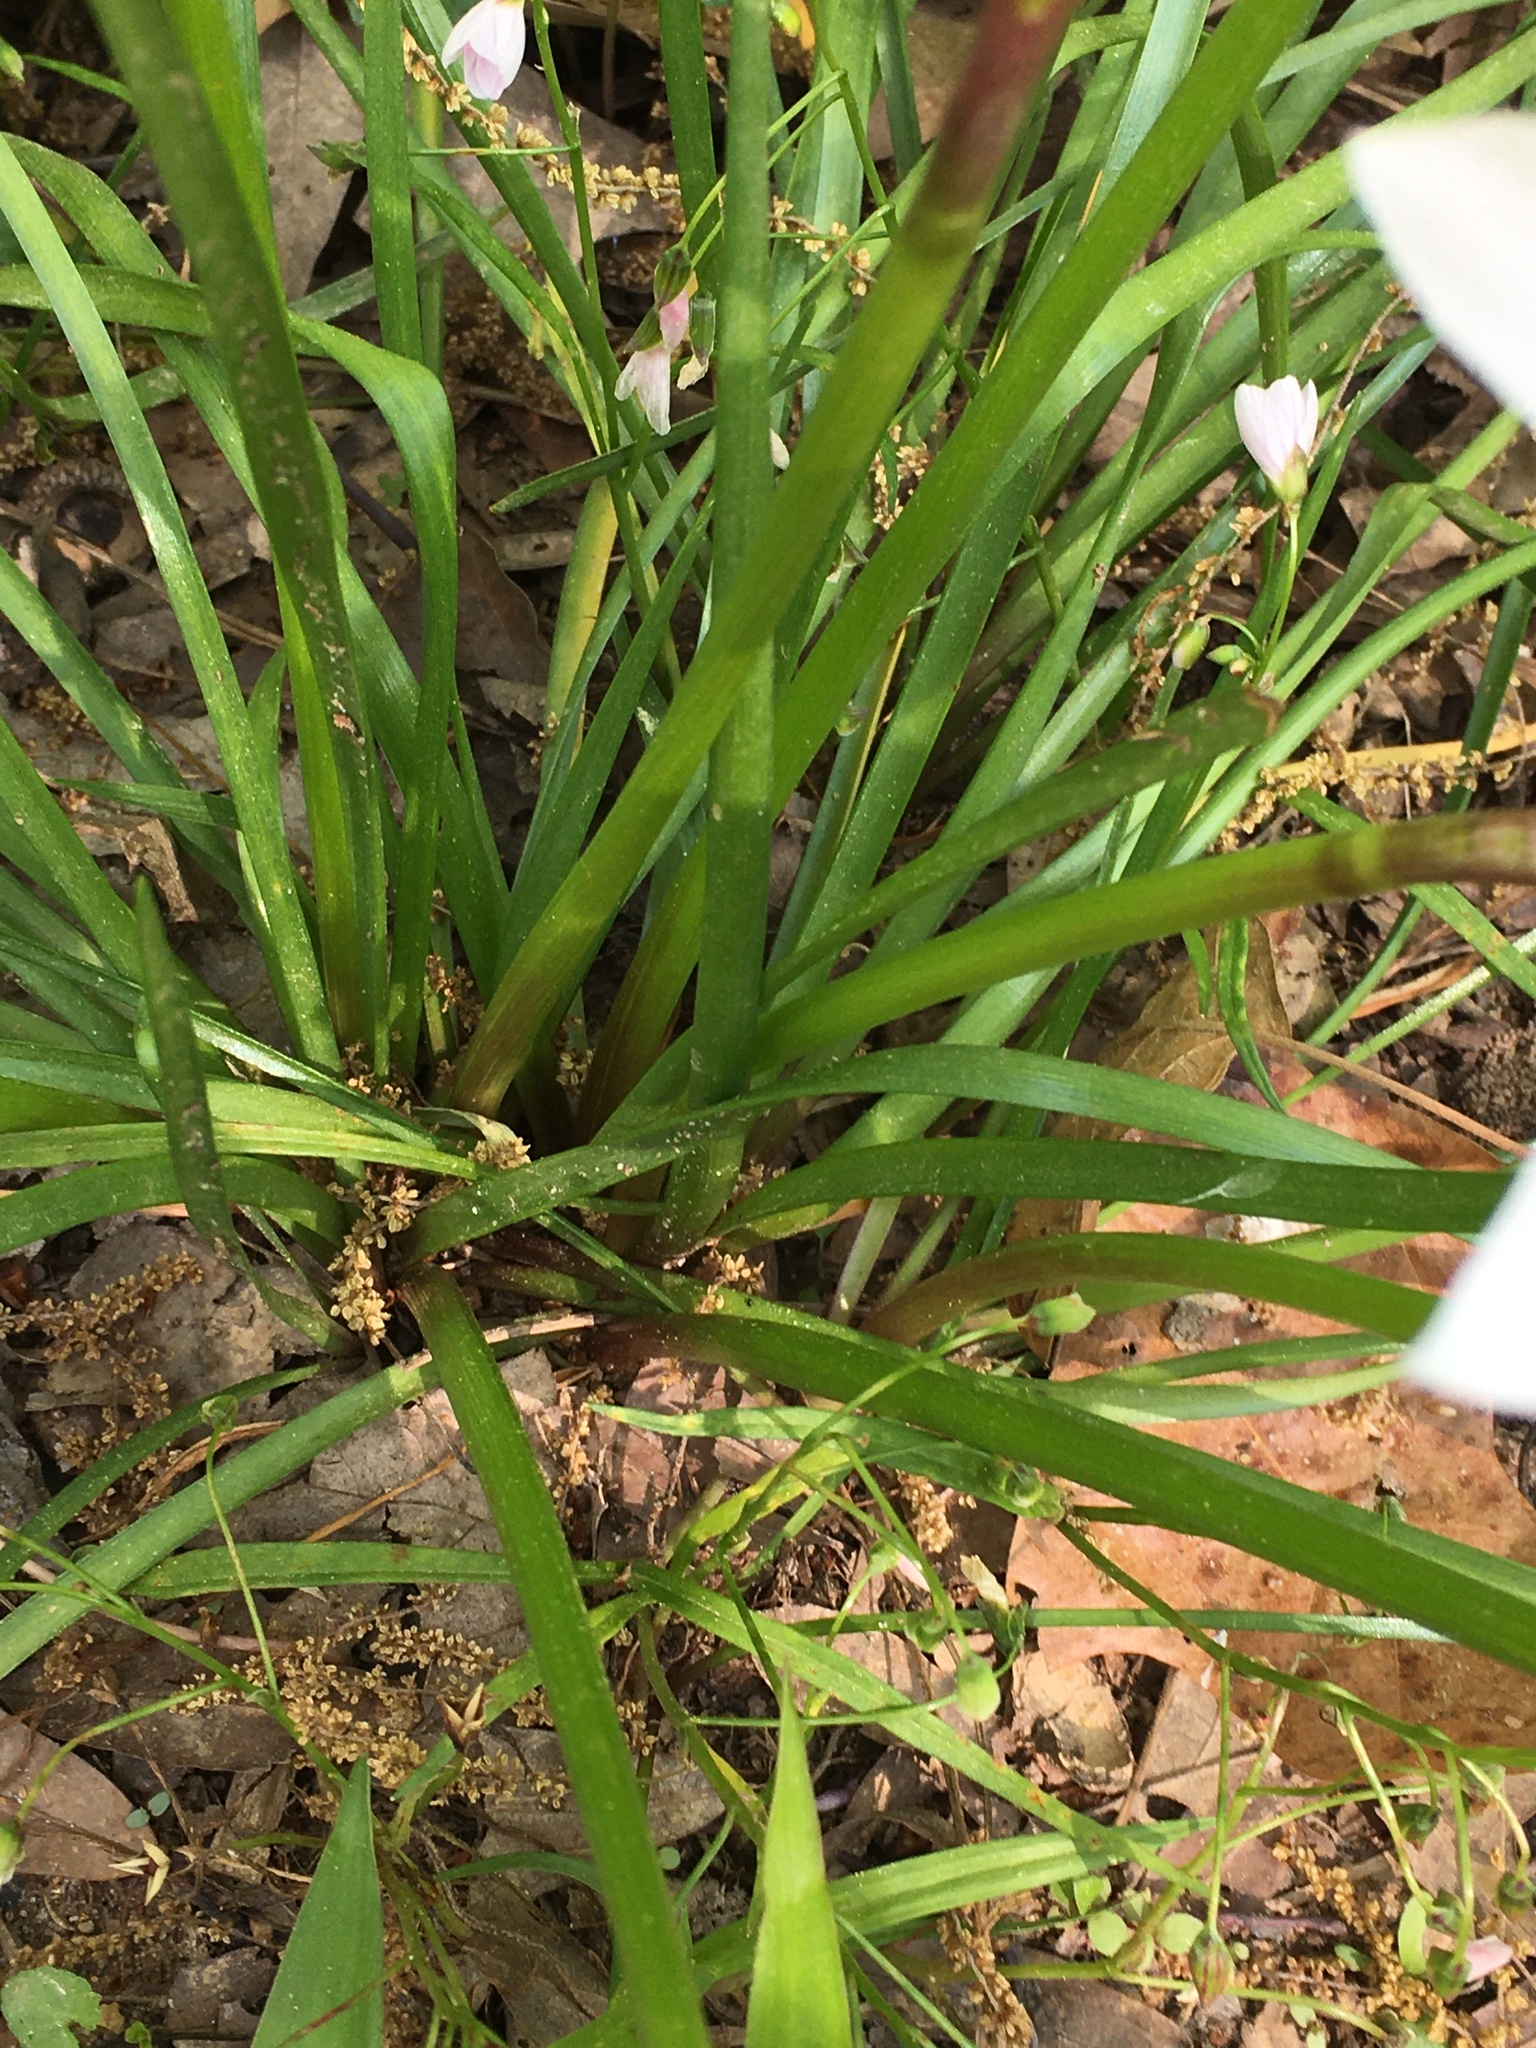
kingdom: Plantae
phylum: Tracheophyta
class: Liliopsida
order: Asparagales
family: Amaryllidaceae
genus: Zephyranthes
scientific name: Zephyranthes atamasco
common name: Atamasco lily
